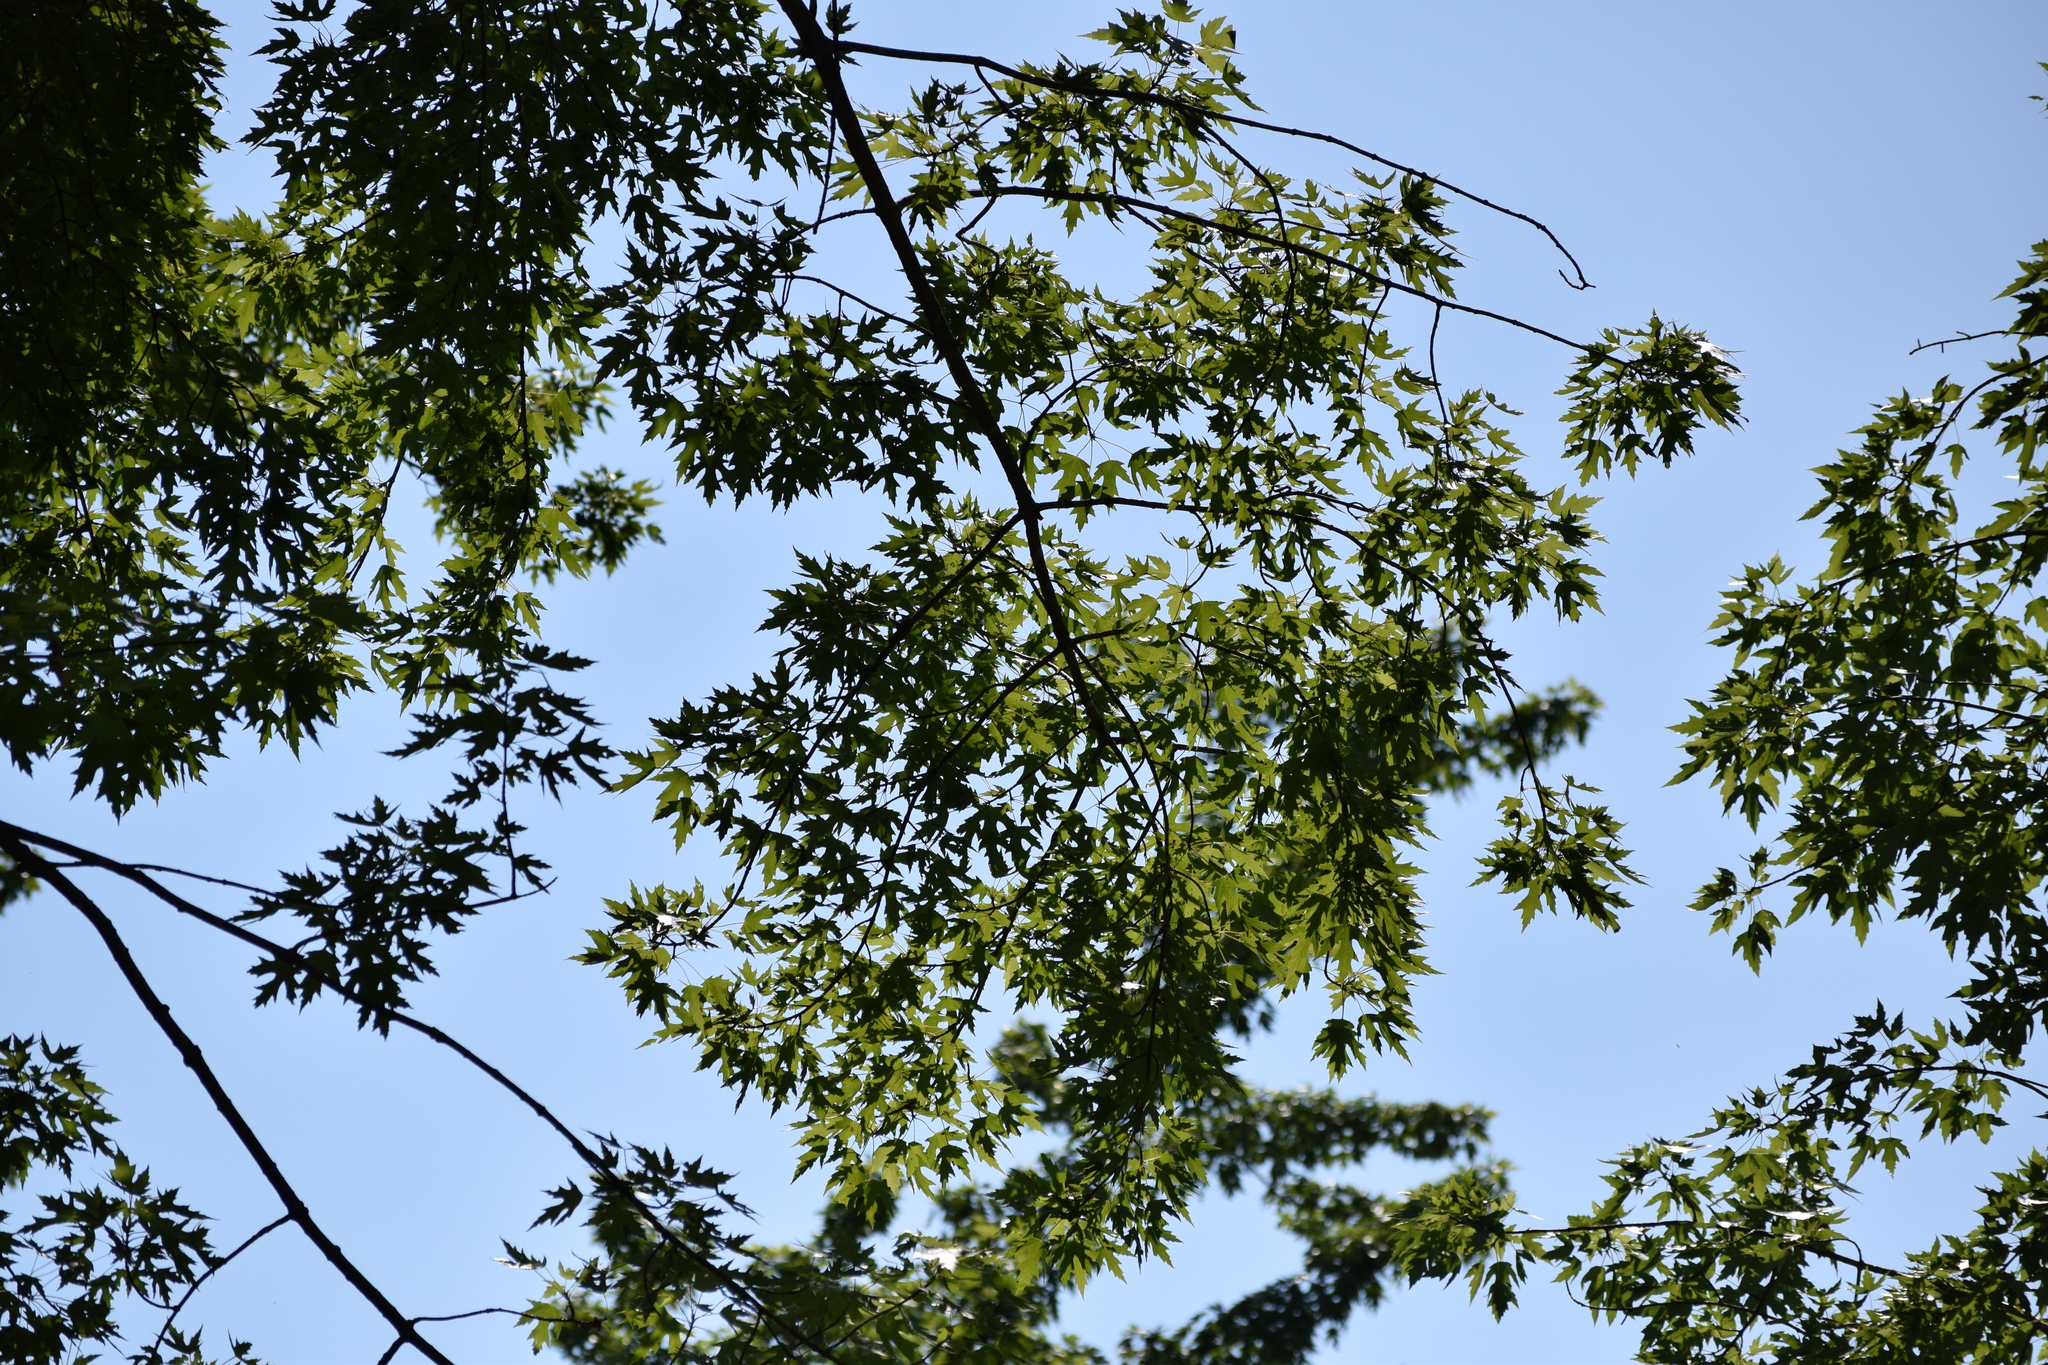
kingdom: Plantae
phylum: Tracheophyta
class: Magnoliopsida
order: Sapindales
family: Sapindaceae
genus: Acer
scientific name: Acer saccharinum
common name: Silver maple
